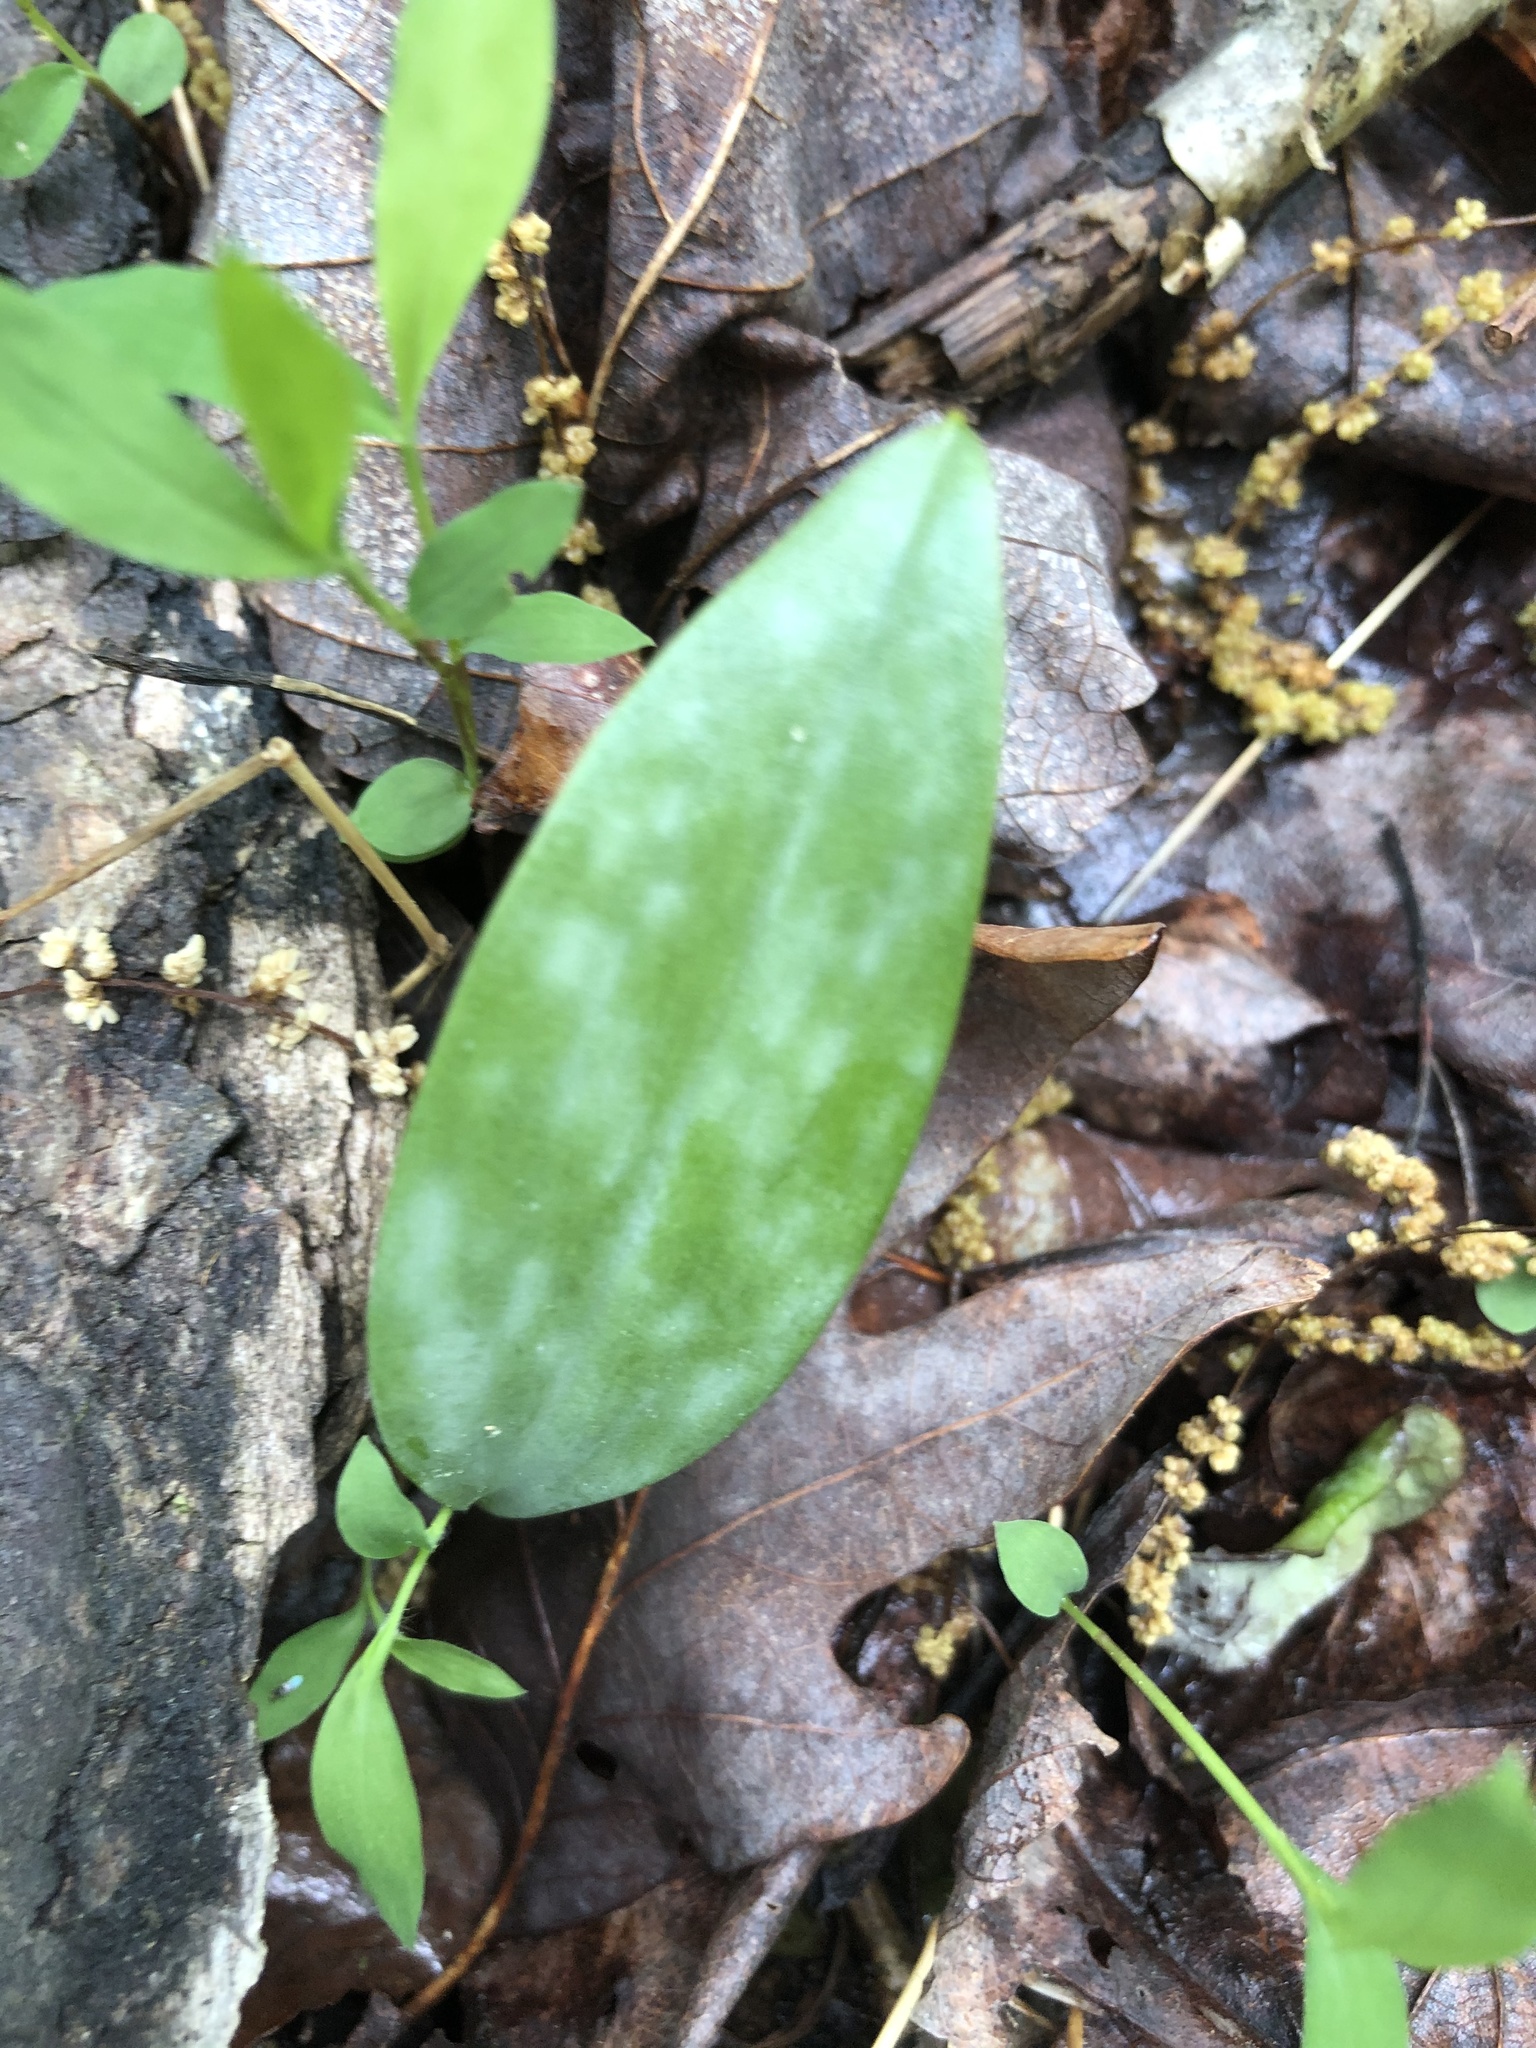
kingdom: Plantae
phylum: Tracheophyta
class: Liliopsida
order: Liliales
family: Liliaceae
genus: Erythronium
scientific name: Erythronium americanum
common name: Yellow adder's-tongue
